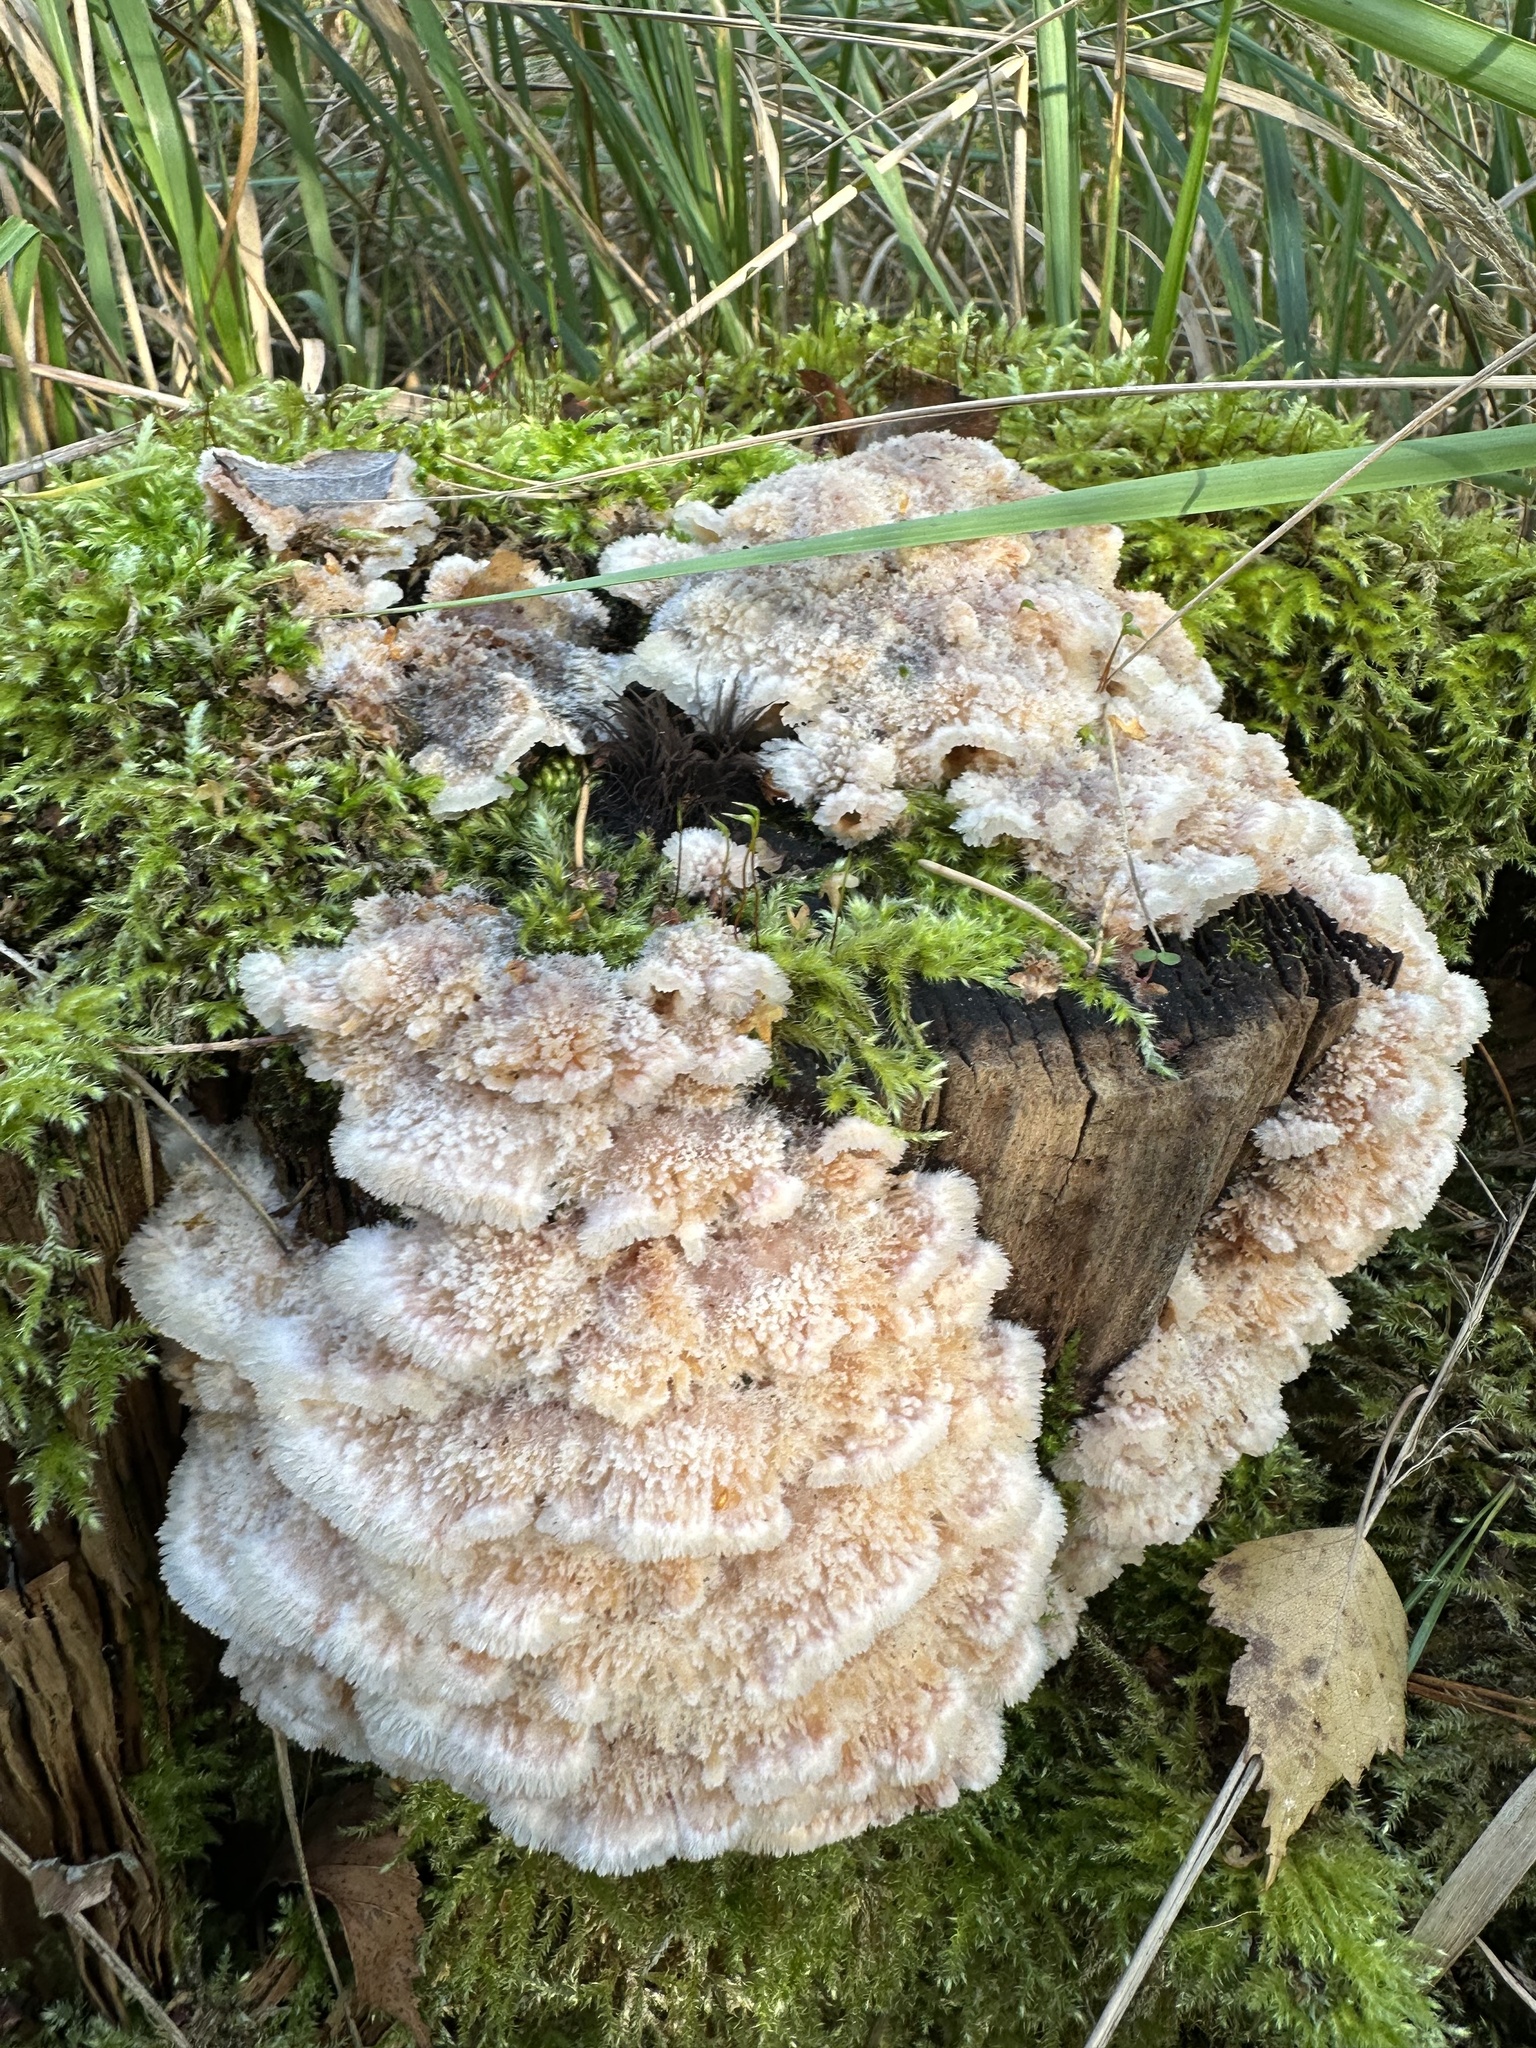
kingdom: Fungi
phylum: Basidiomycota
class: Agaricomycetes
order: Polyporales
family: Meruliaceae
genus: Phlebia
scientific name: Phlebia tremellosa
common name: Jelly rot
